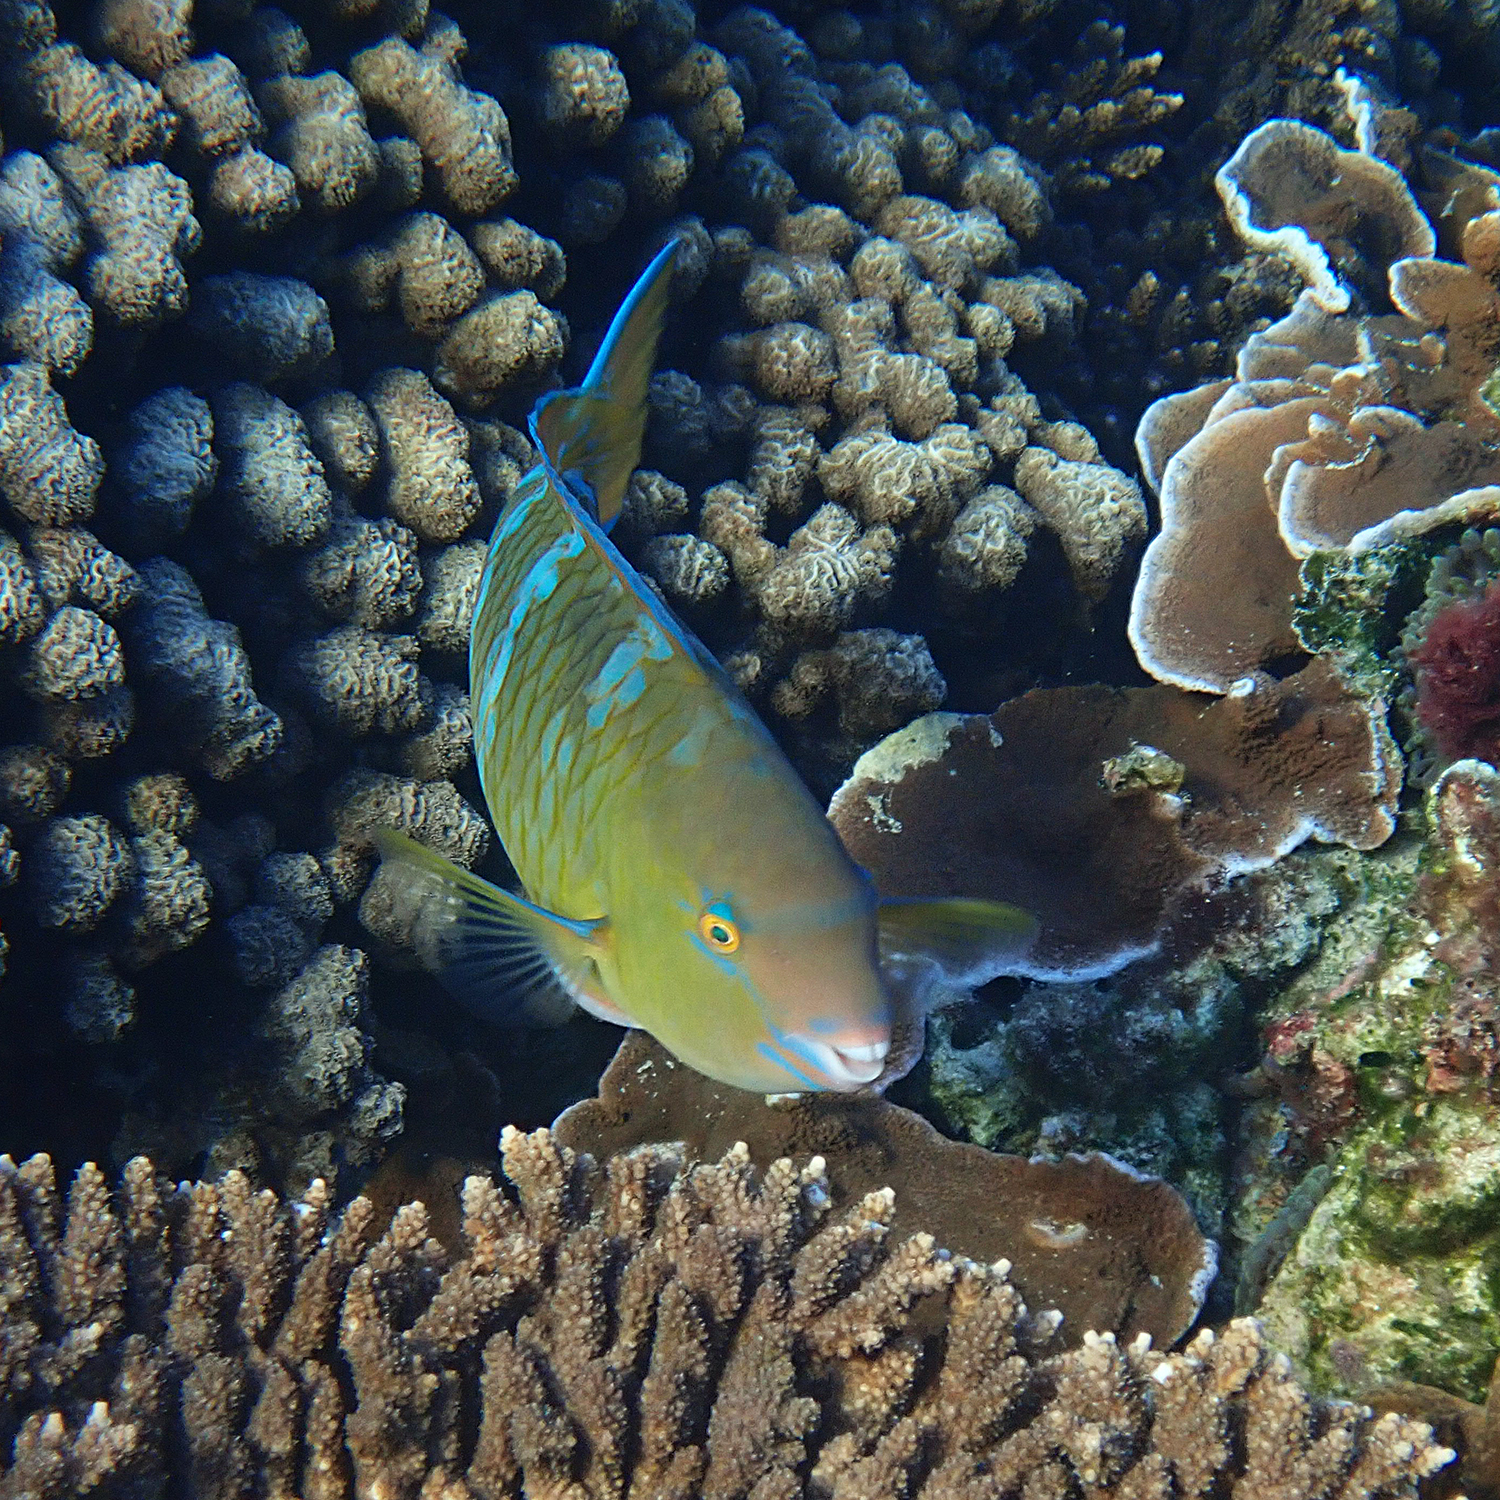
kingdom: Animalia
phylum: Chordata
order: Perciformes
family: Scaridae
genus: Scarus
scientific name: Scarus ghobban
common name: Blue-barred parrotfish
